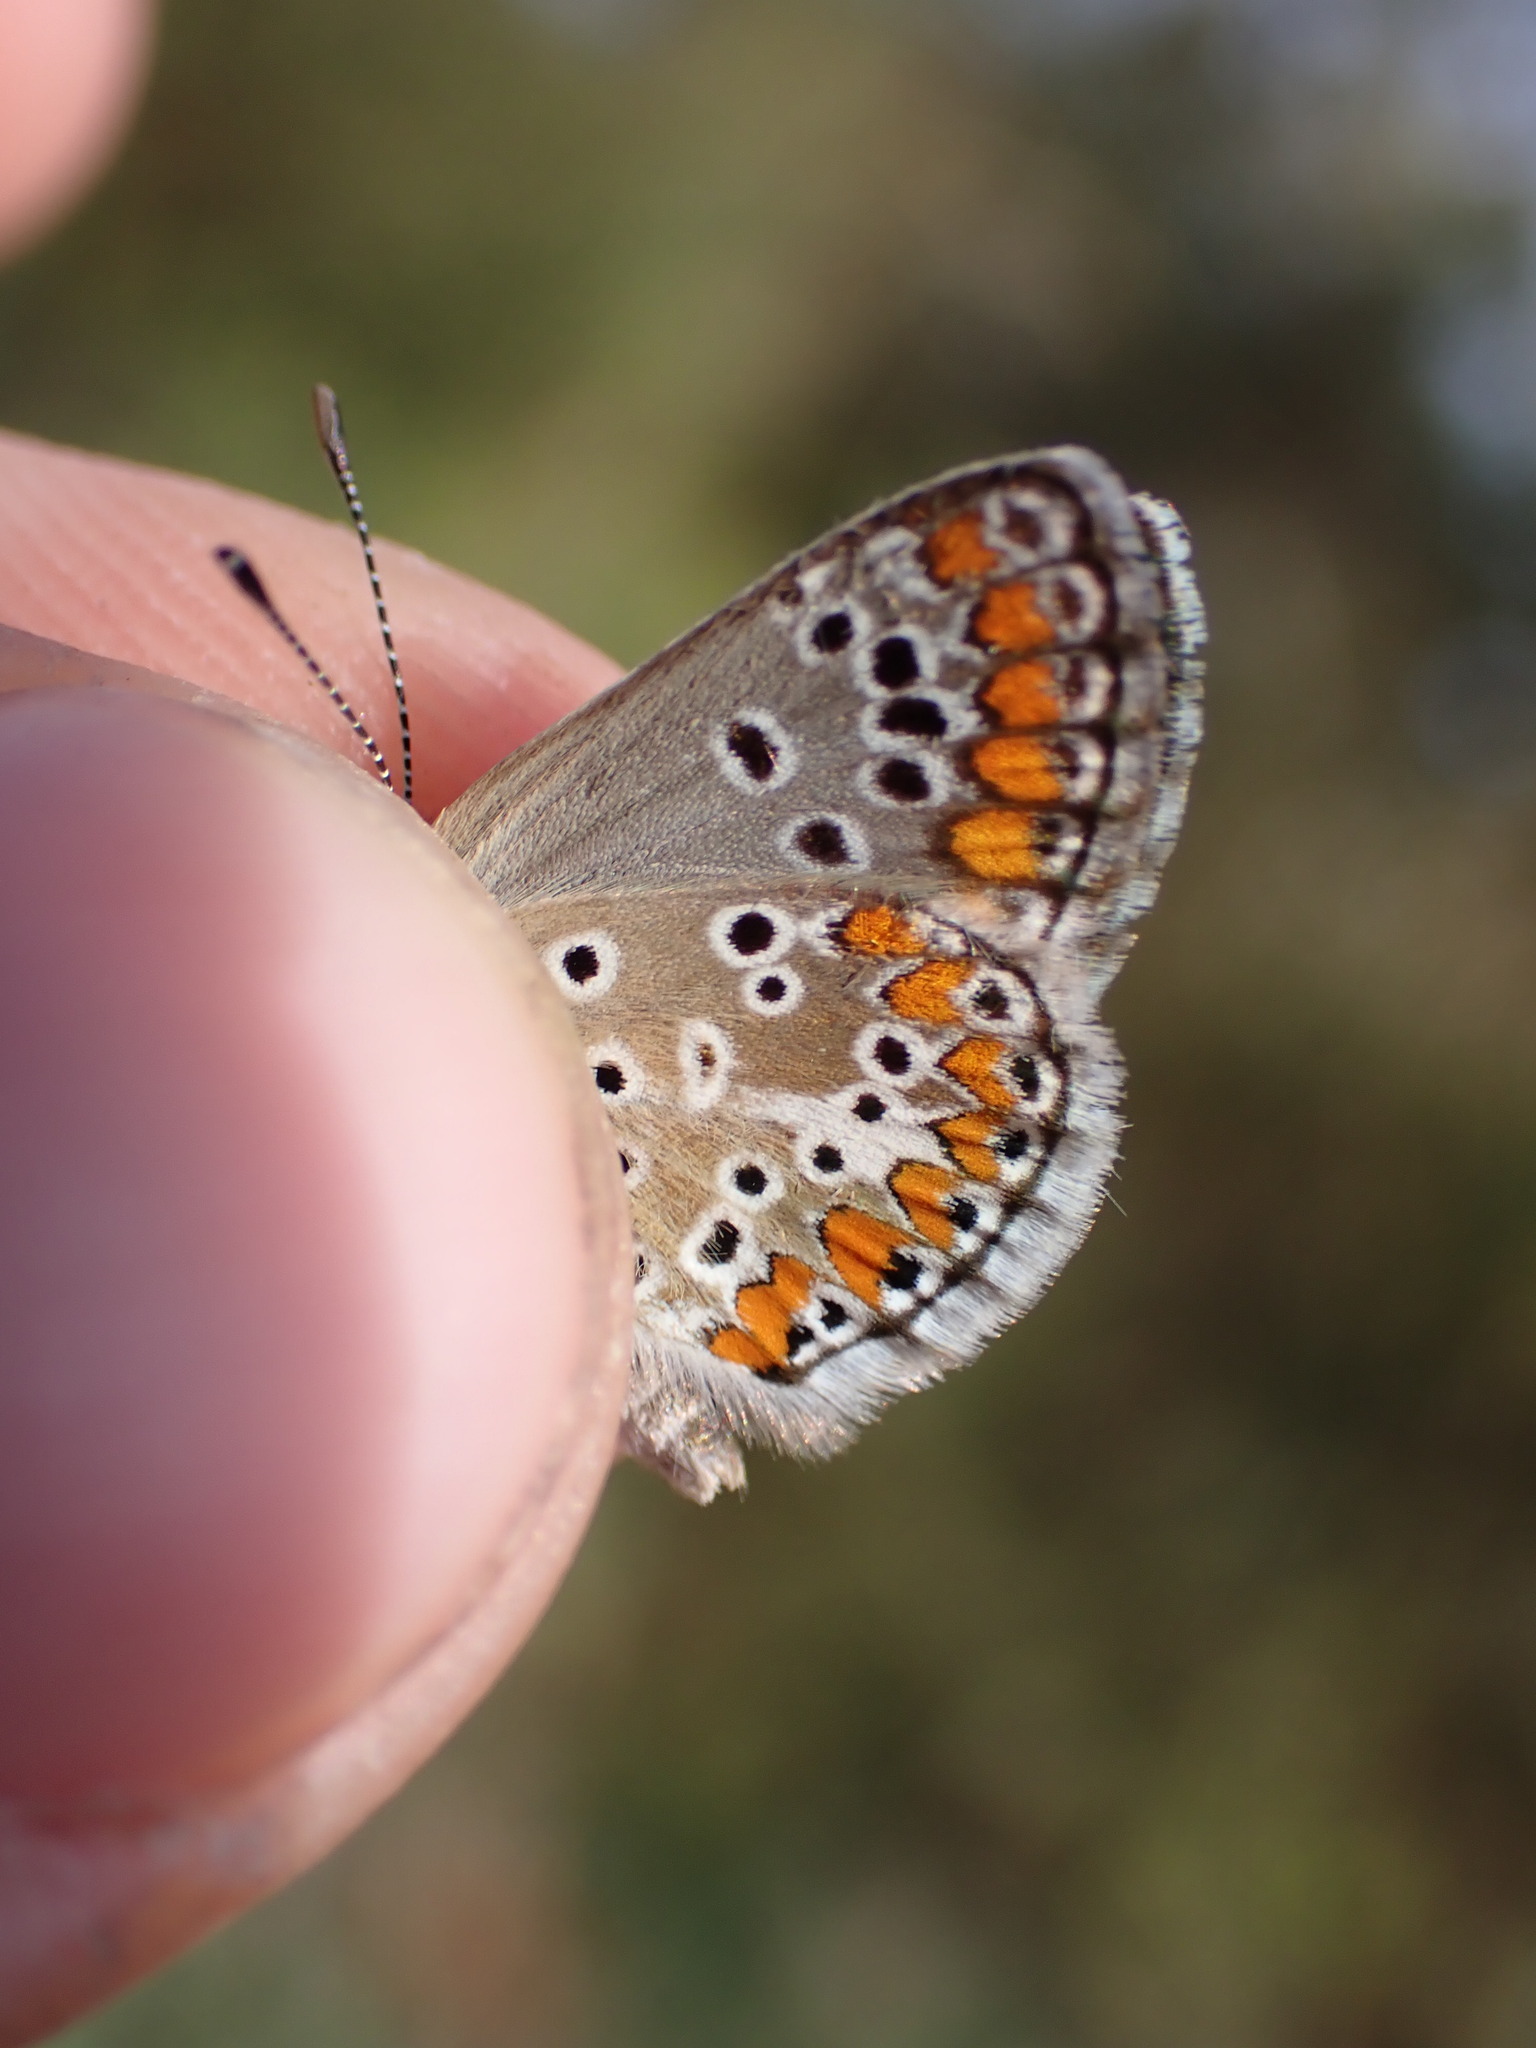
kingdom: Animalia
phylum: Arthropoda
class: Insecta
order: Lepidoptera
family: Lycaenidae
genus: Aricia
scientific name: Aricia agestis
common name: Brown argus
